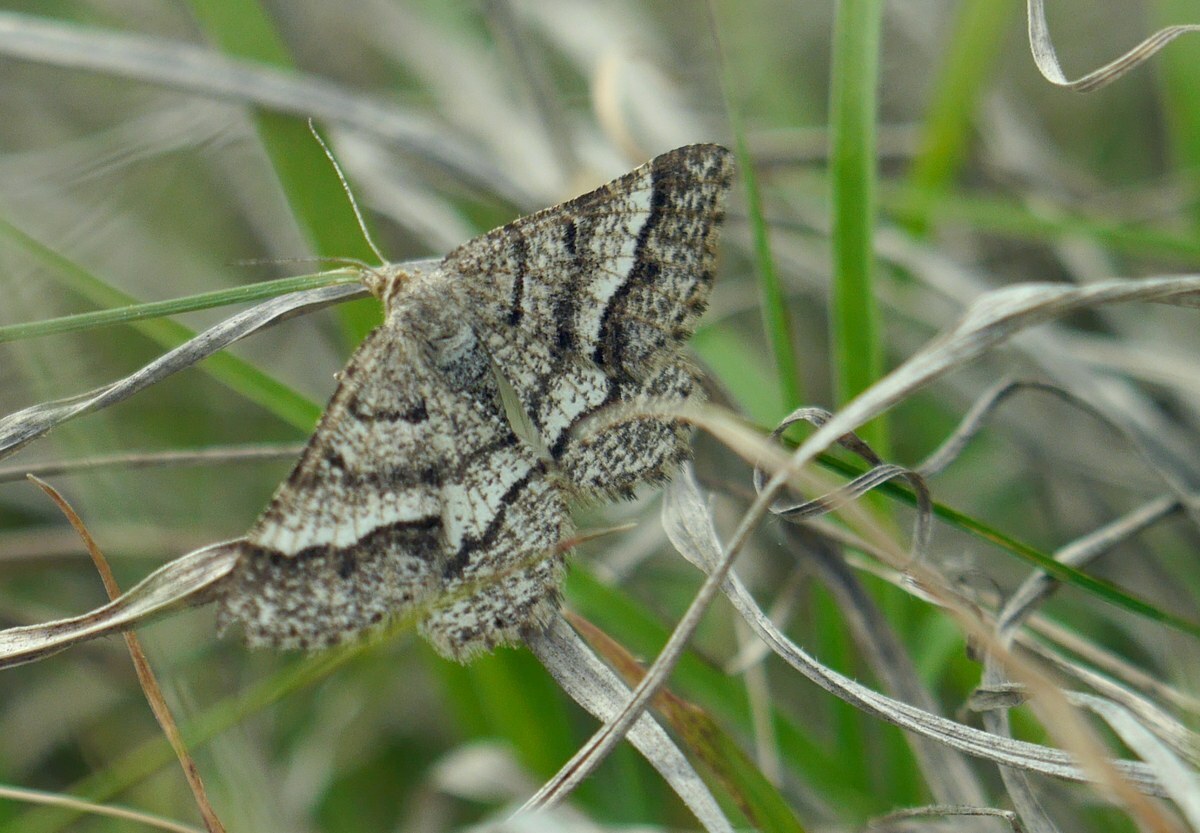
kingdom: Animalia
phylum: Arthropoda
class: Insecta
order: Lepidoptera
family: Geometridae
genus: Tephrina
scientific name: Tephrina murinaria
